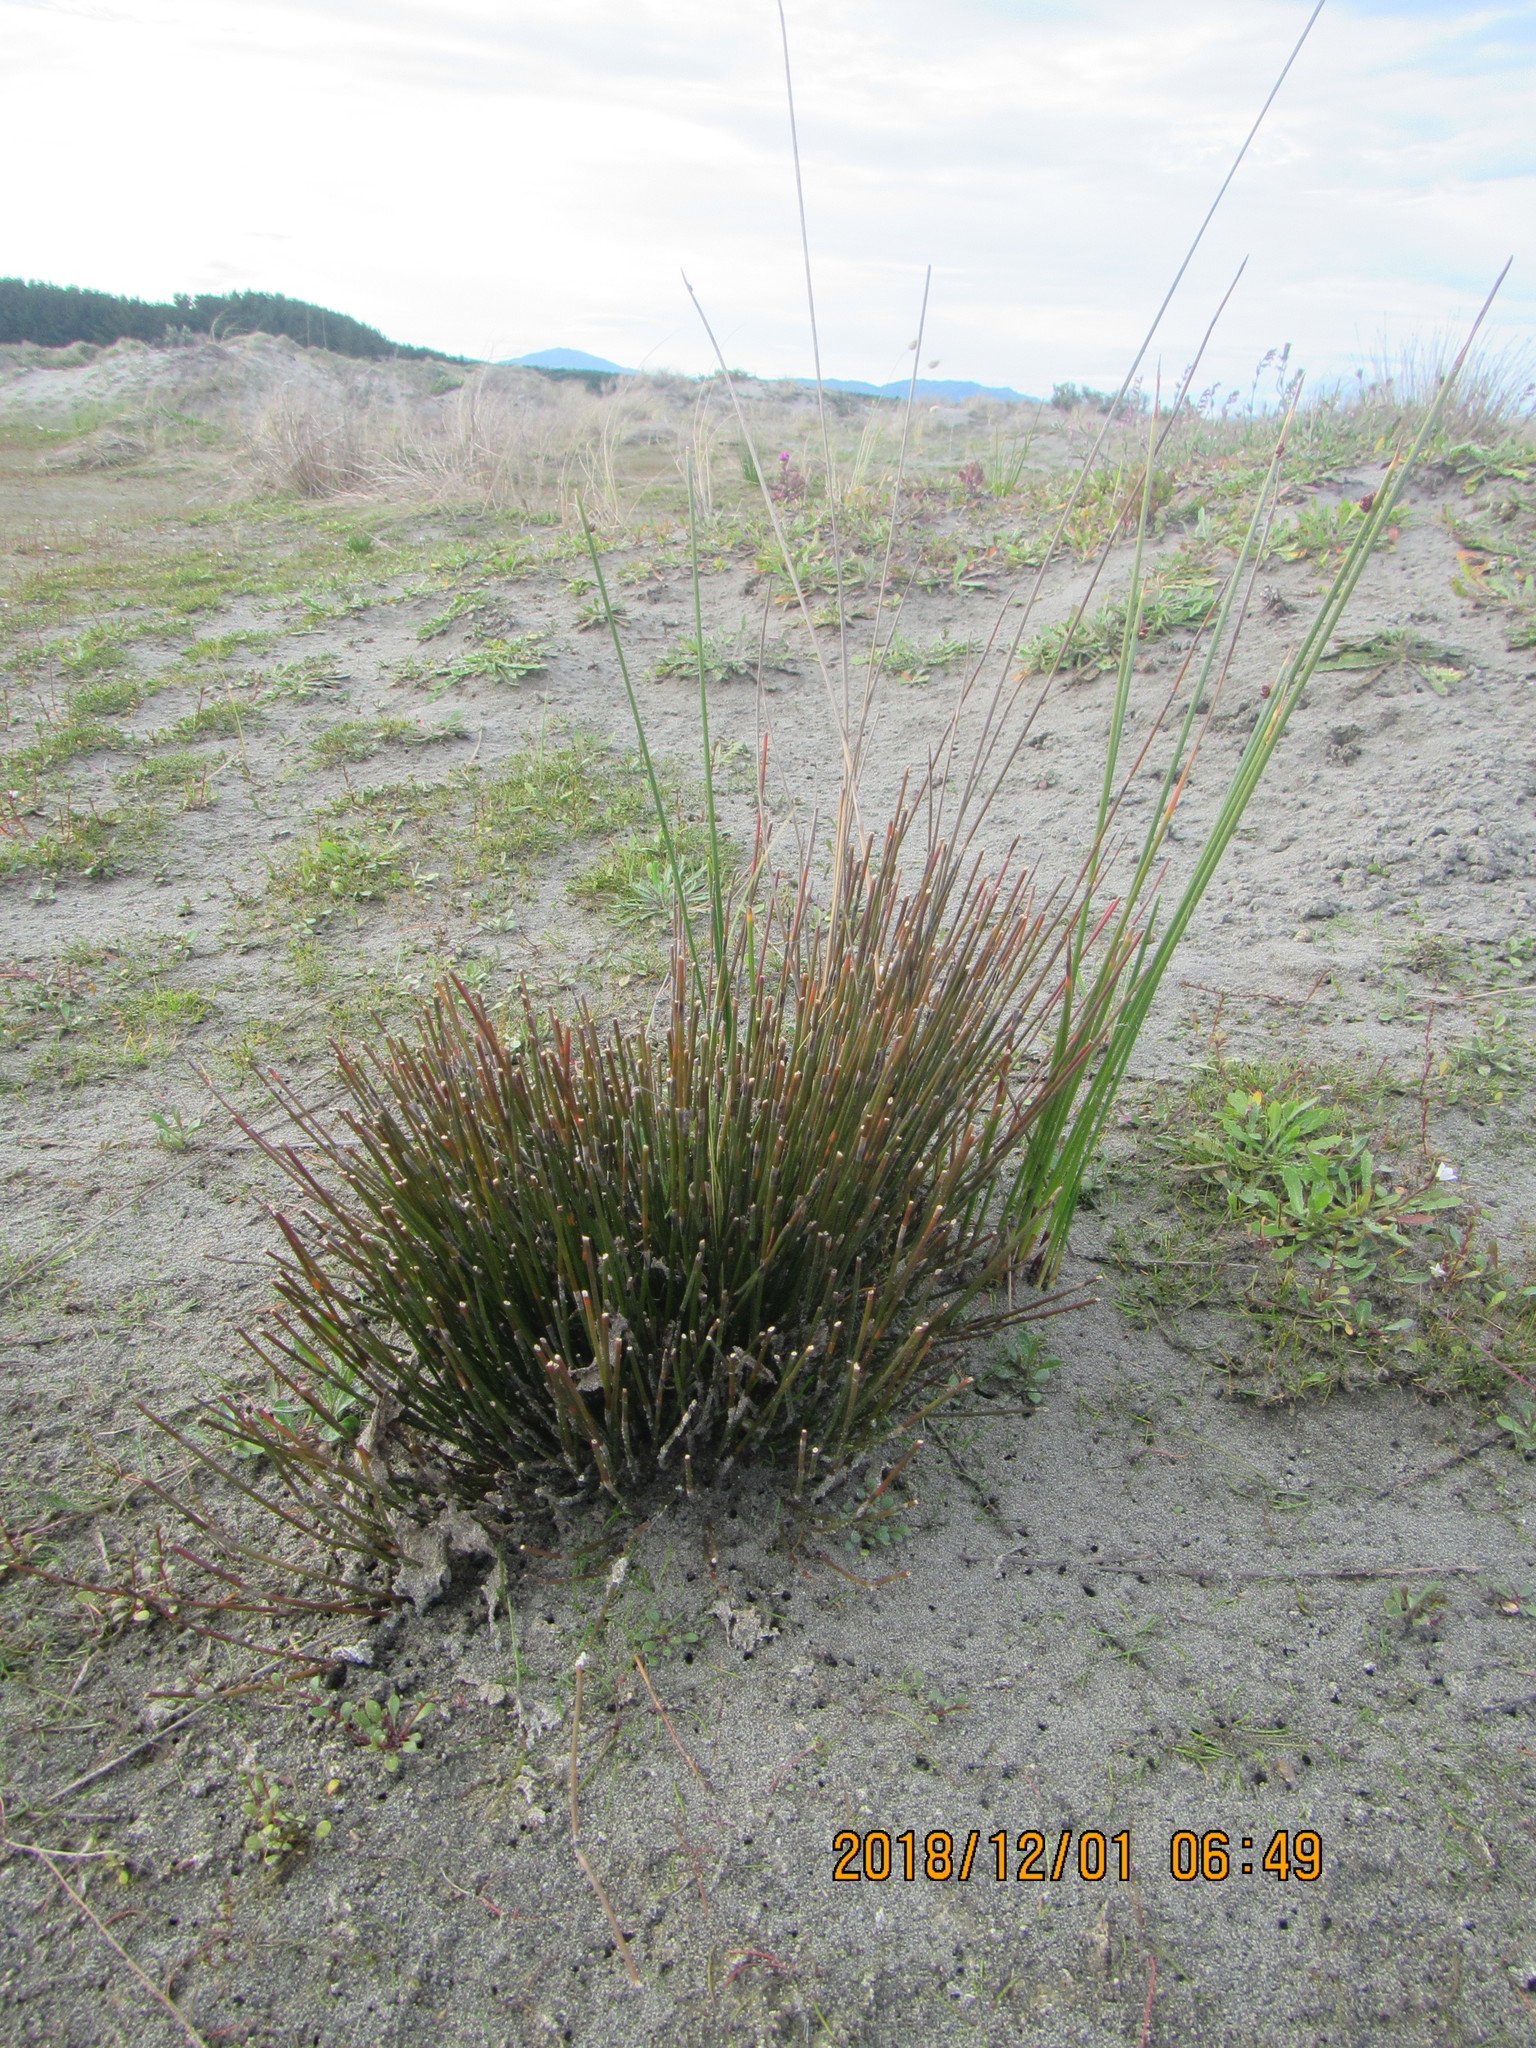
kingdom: Plantae
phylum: Tracheophyta
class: Liliopsida
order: Poales
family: Cyperaceae
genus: Ficinia
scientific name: Ficinia nodosa
